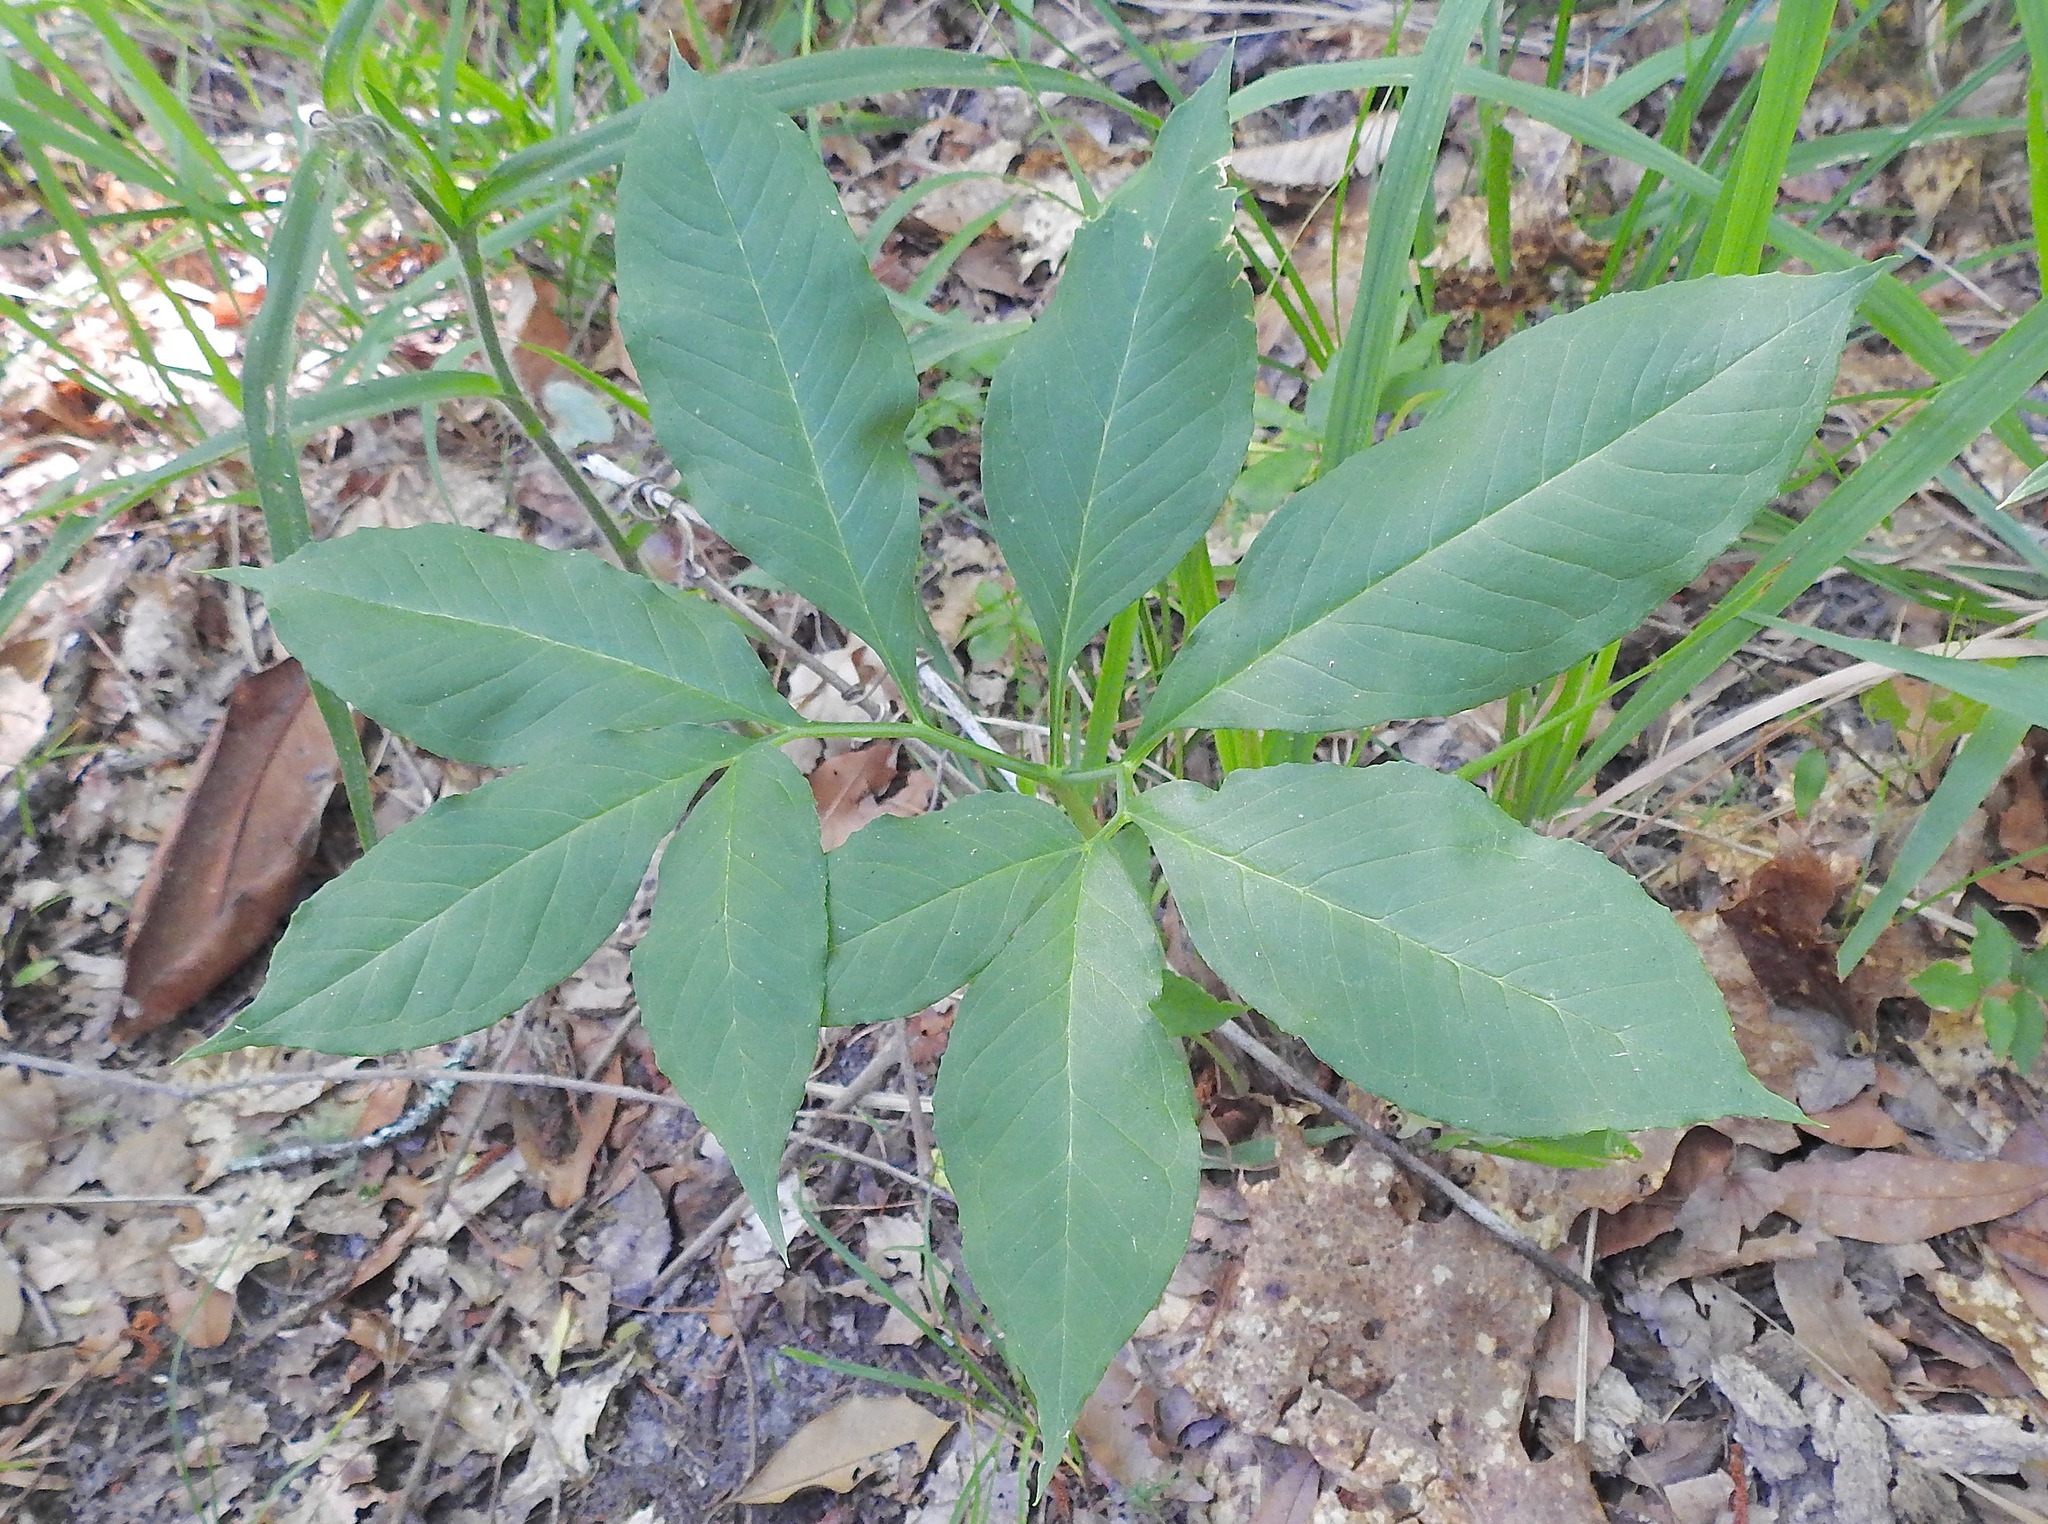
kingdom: Plantae
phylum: Tracheophyta
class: Liliopsida
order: Alismatales
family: Araceae
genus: Arisaema
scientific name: Arisaema dracontium
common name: Dragon-arum
